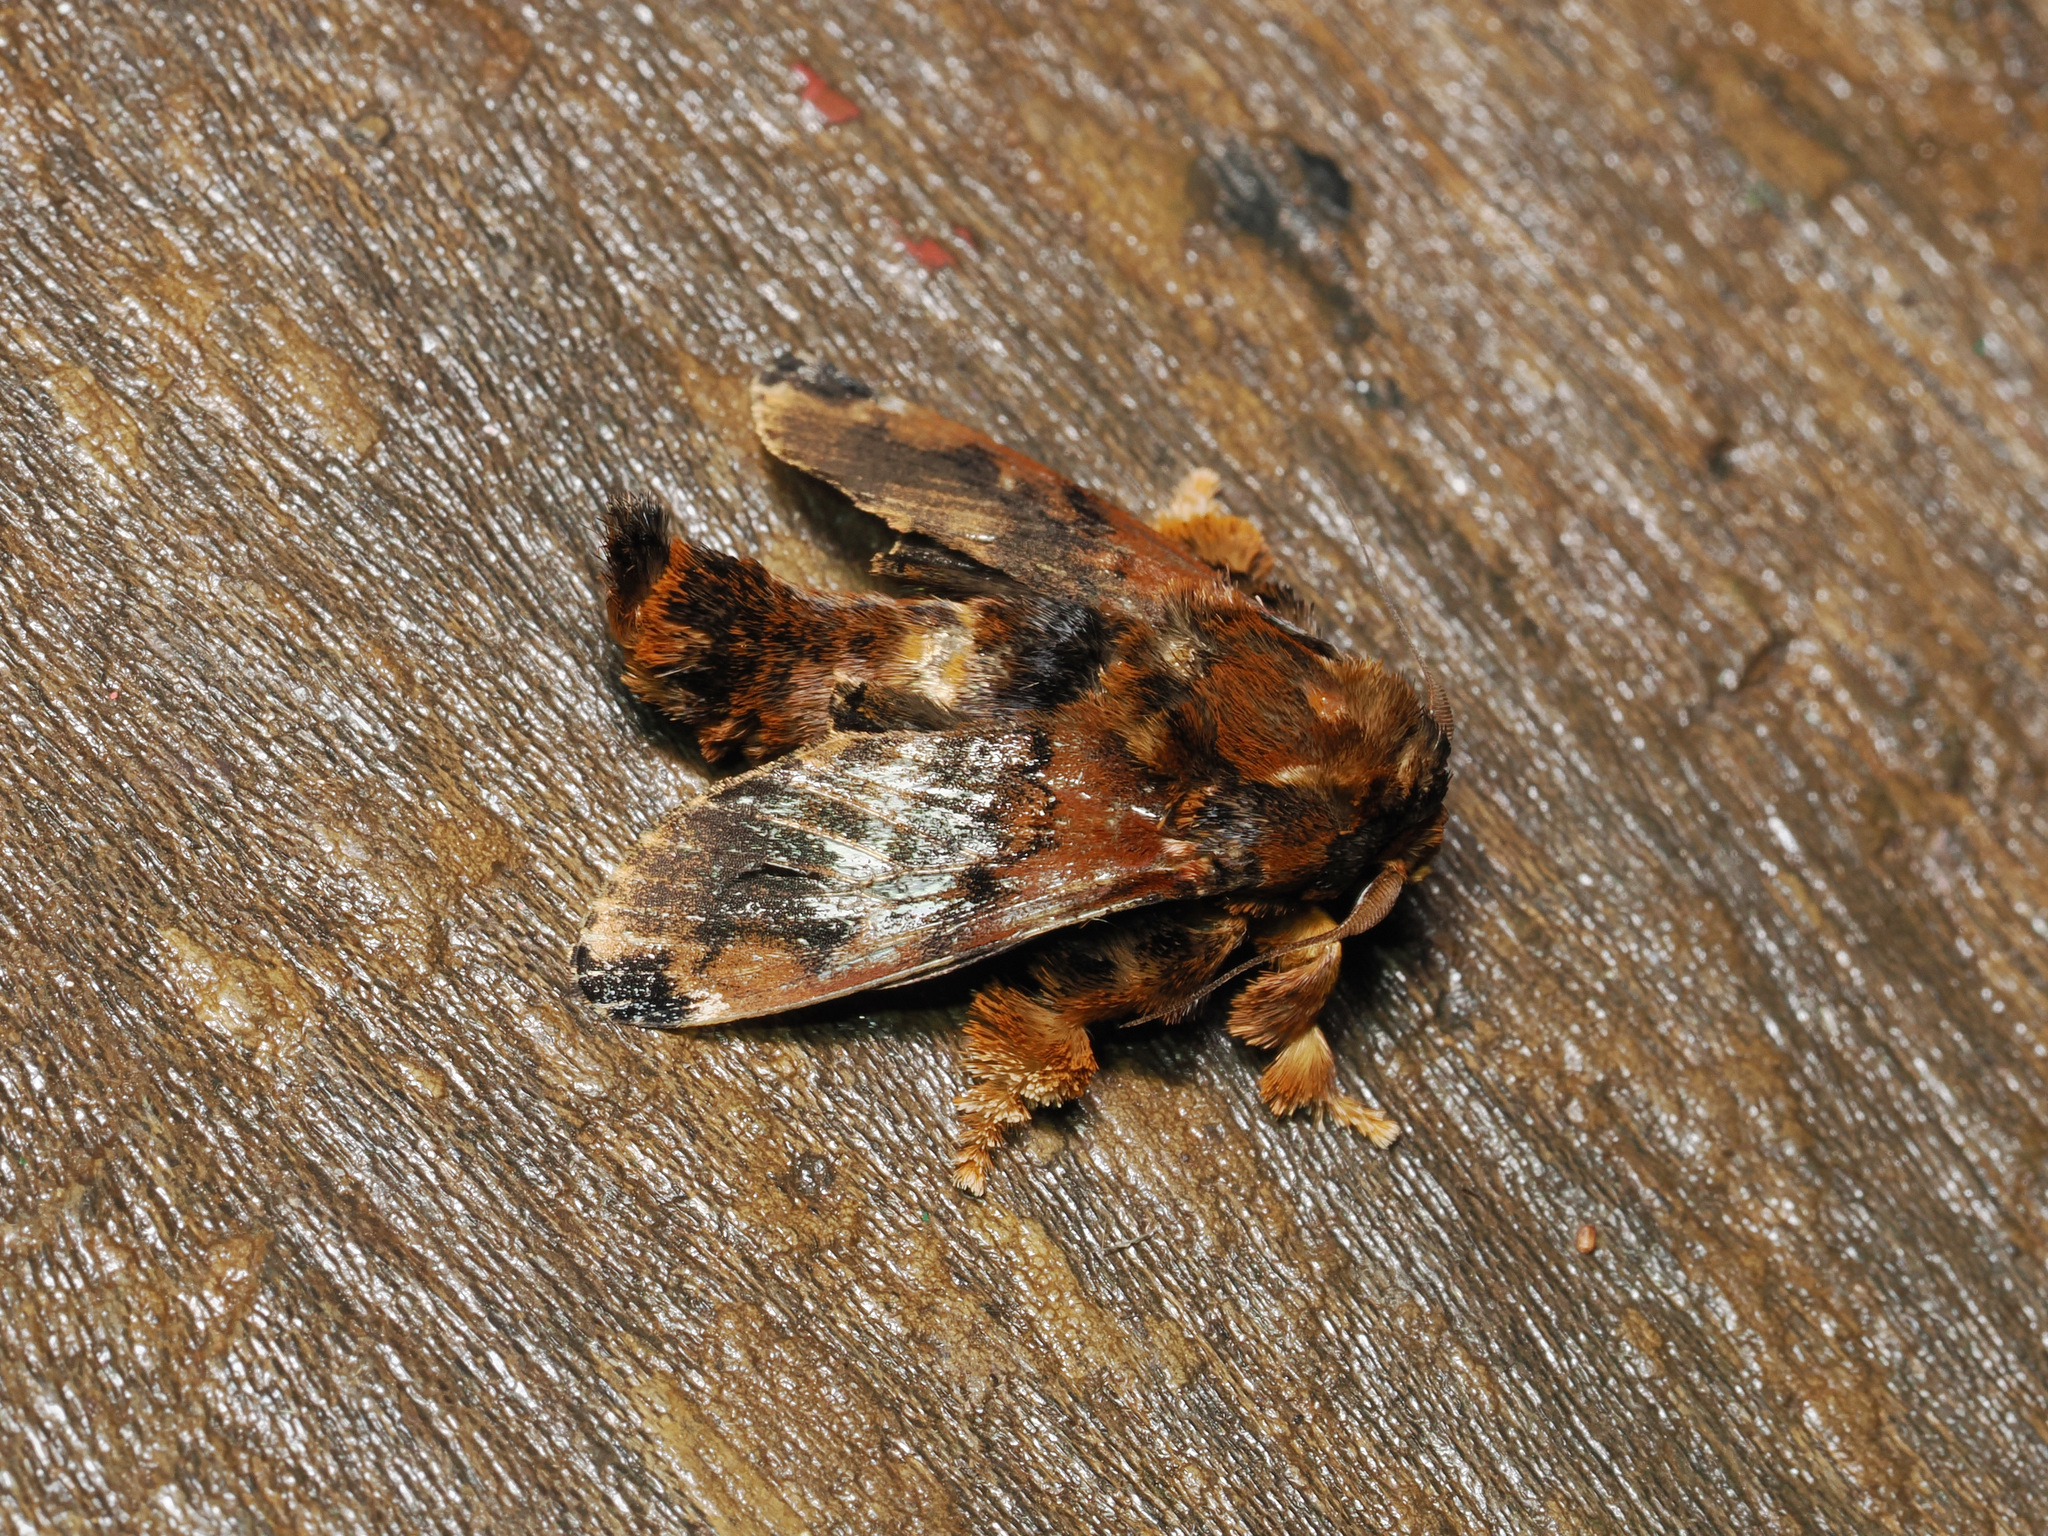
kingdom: Animalia
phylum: Arthropoda
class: Insecta
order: Lepidoptera
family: Limacodidae
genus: Cheromettia
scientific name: Cheromettia sumatrensis
